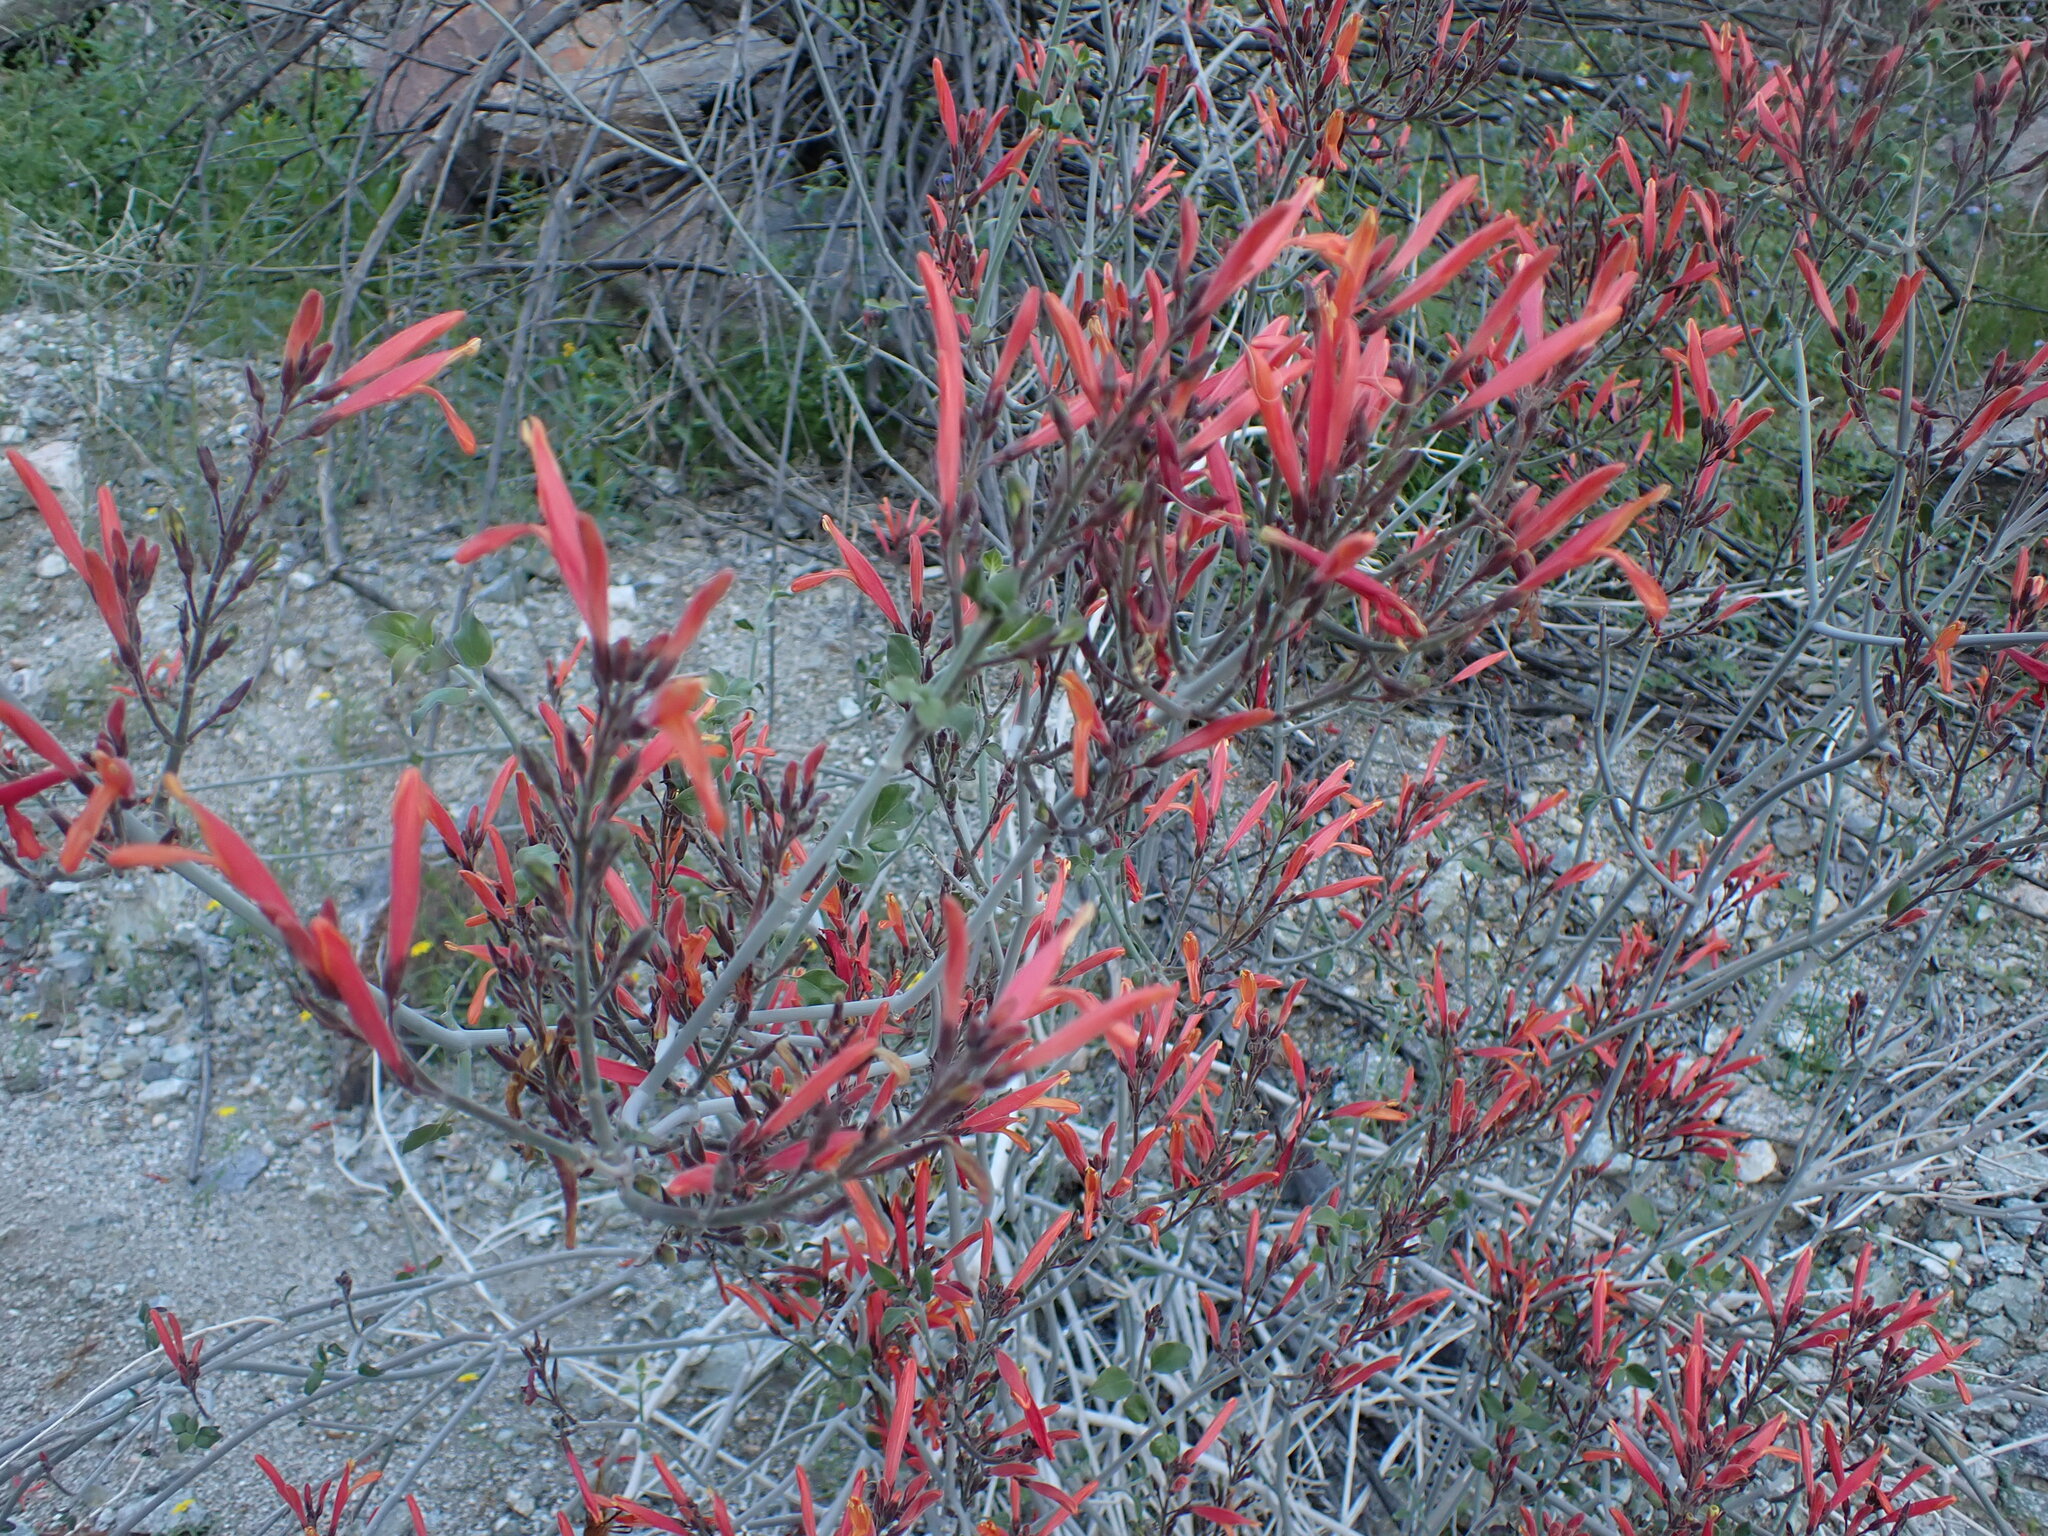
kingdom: Plantae
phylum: Tracheophyta
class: Magnoliopsida
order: Lamiales
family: Acanthaceae
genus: Justicia
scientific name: Justicia californica
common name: Chuparosa-honeysuckle
